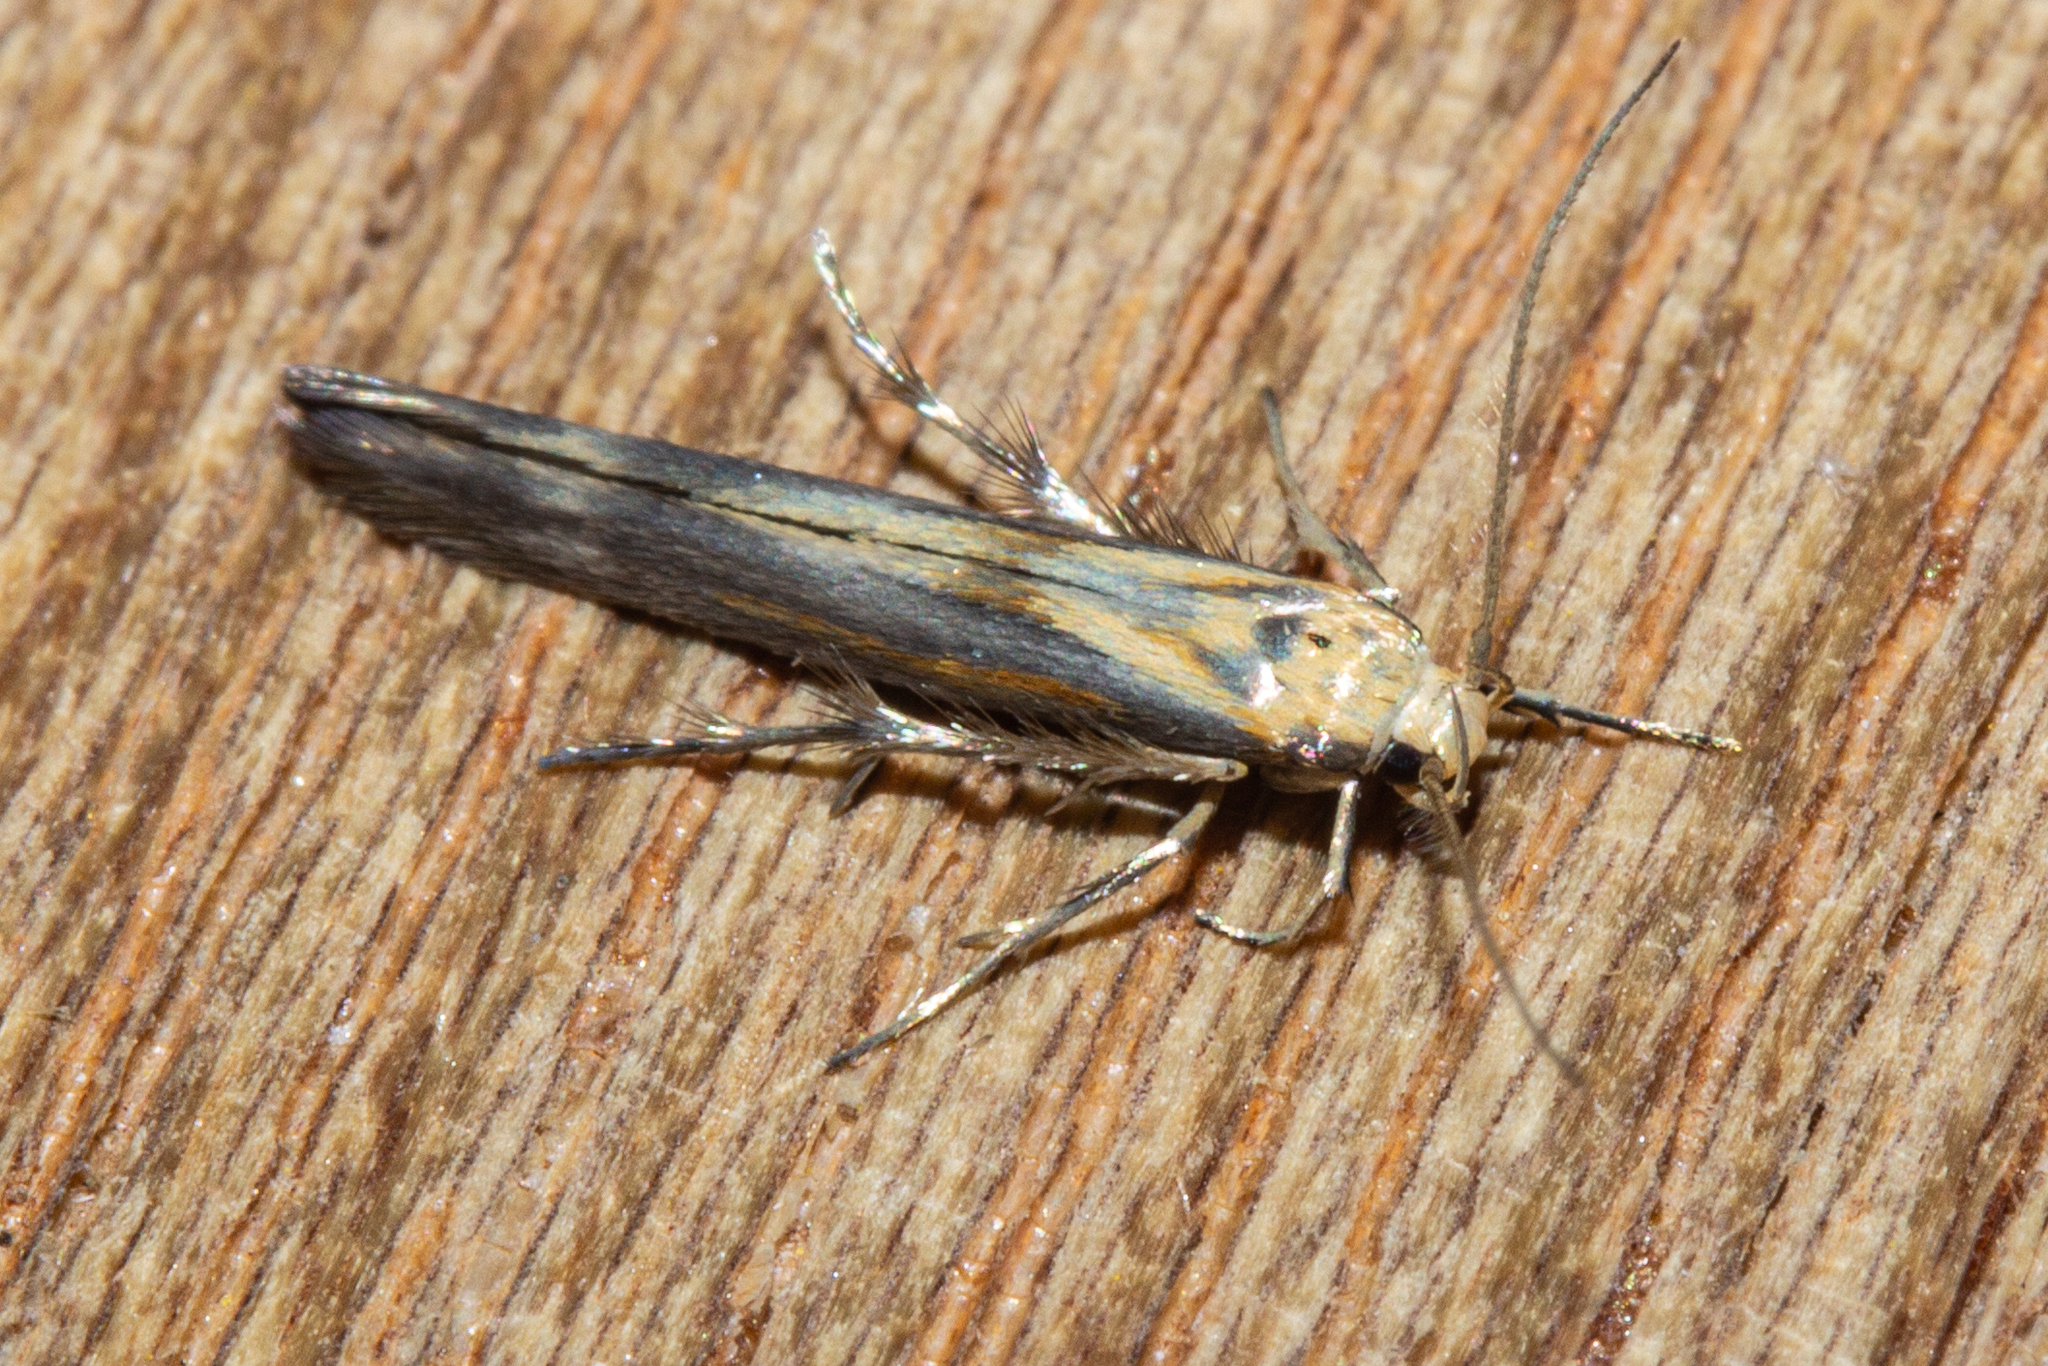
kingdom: Animalia
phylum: Arthropoda
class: Insecta
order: Lepidoptera
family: Stathmopodidae
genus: Stathmopoda
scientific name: Stathmopoda horticola
